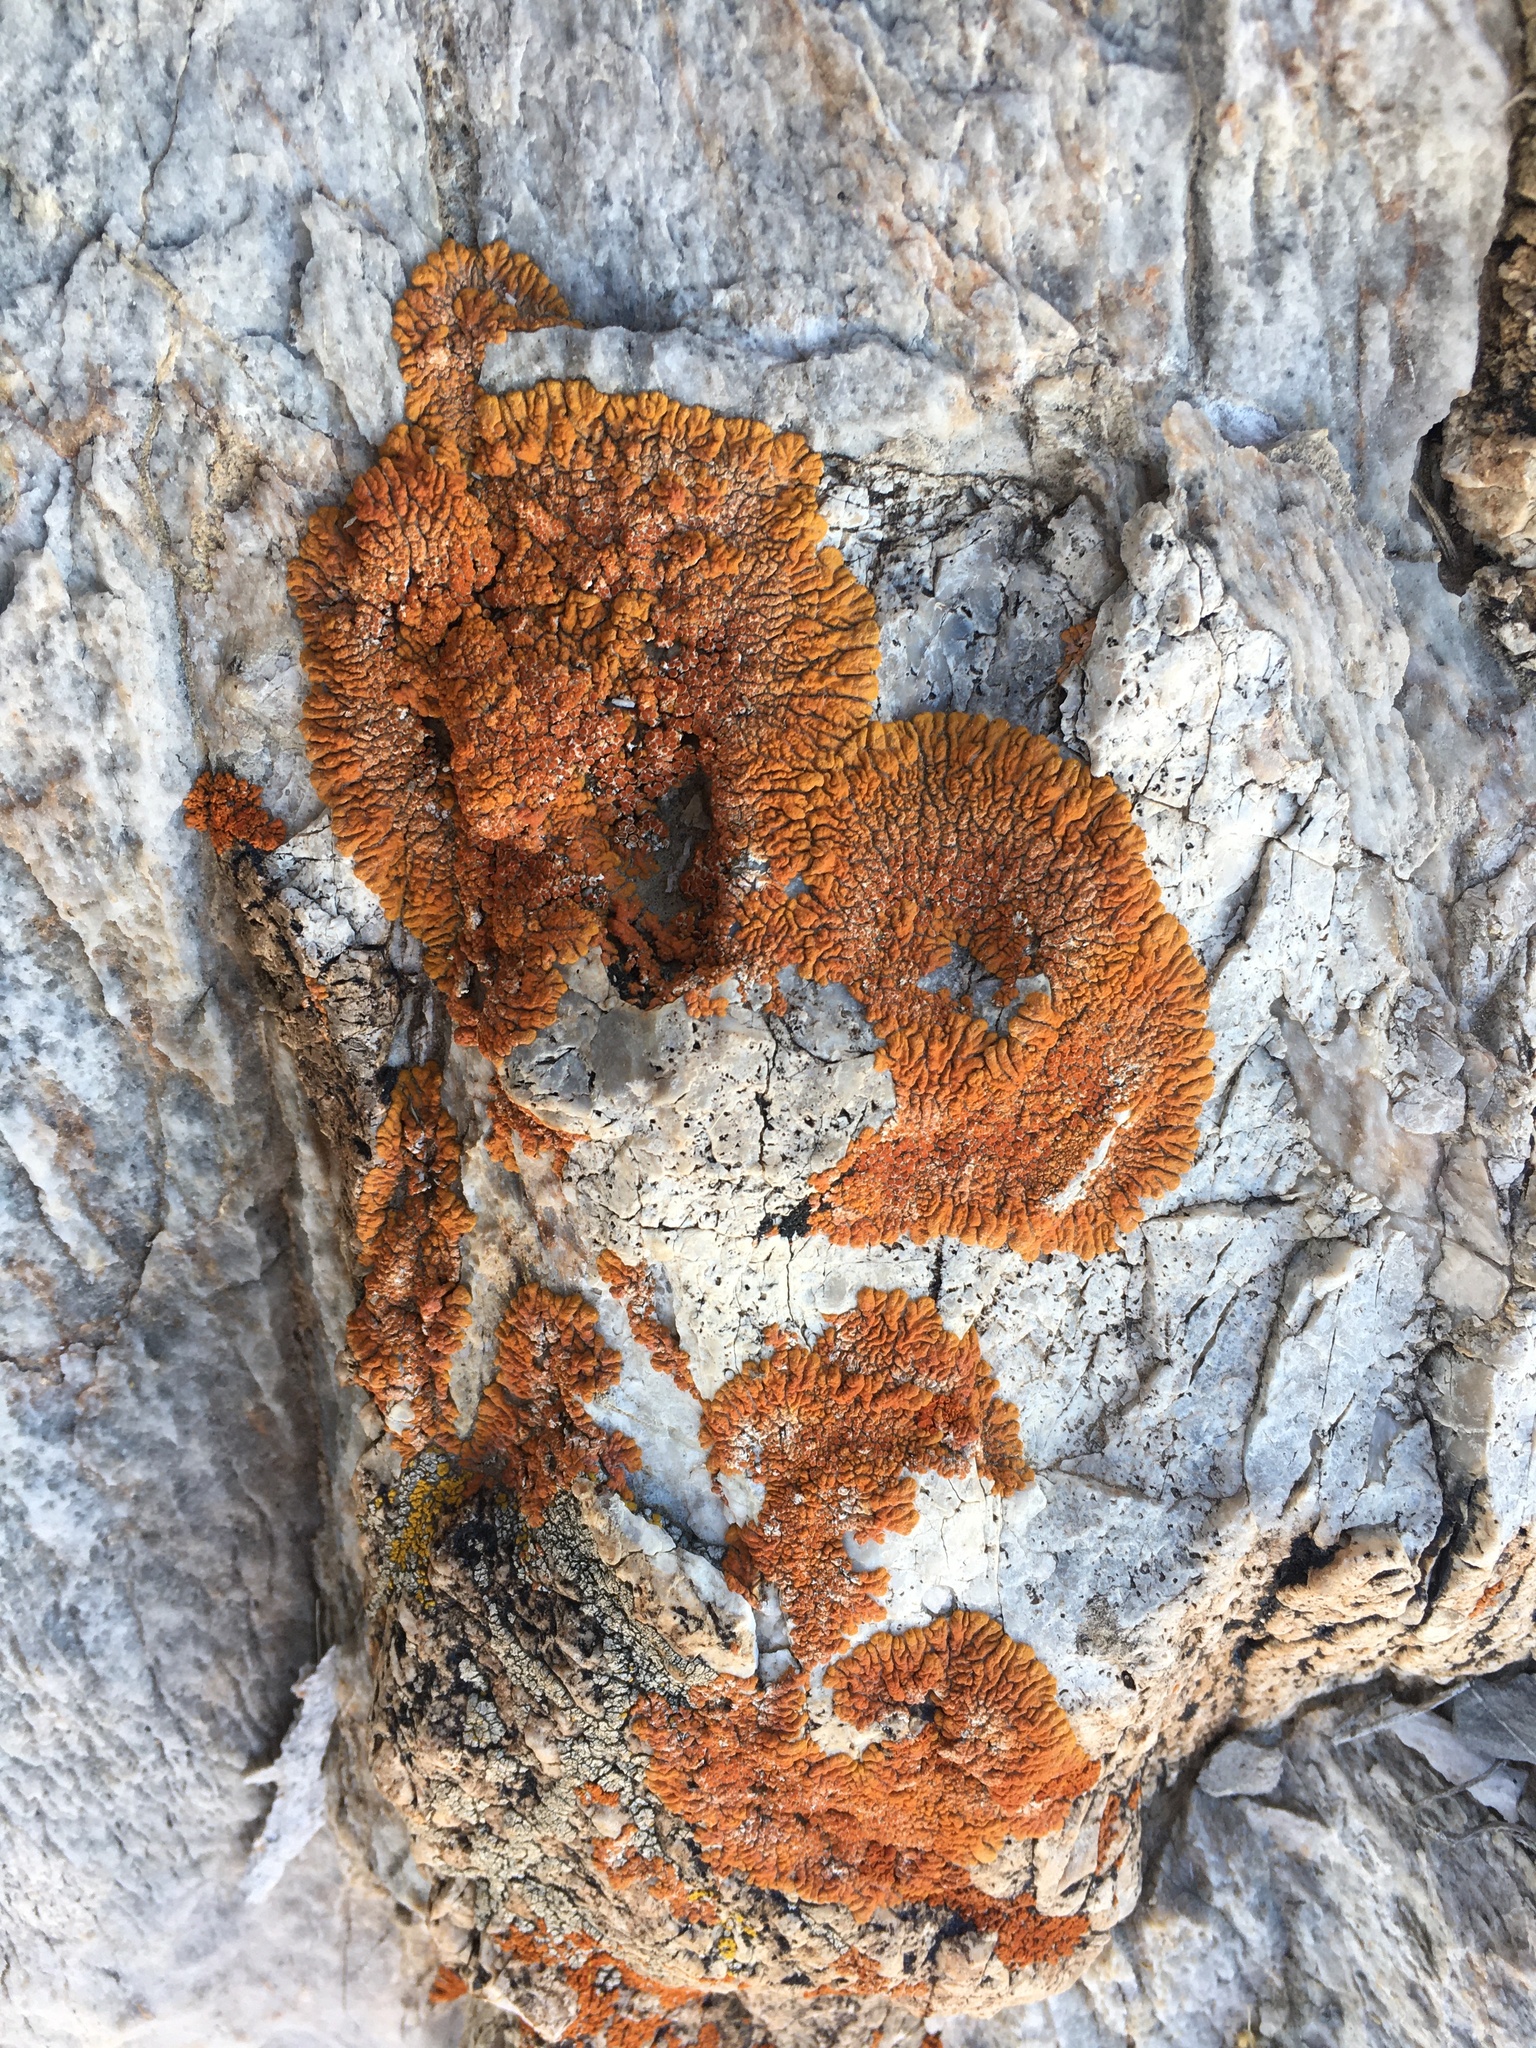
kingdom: Fungi
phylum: Ascomycota
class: Lecanoromycetes
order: Teloschistales
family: Teloschistaceae
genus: Golubkovia
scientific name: Golubkovia trachyphylla
